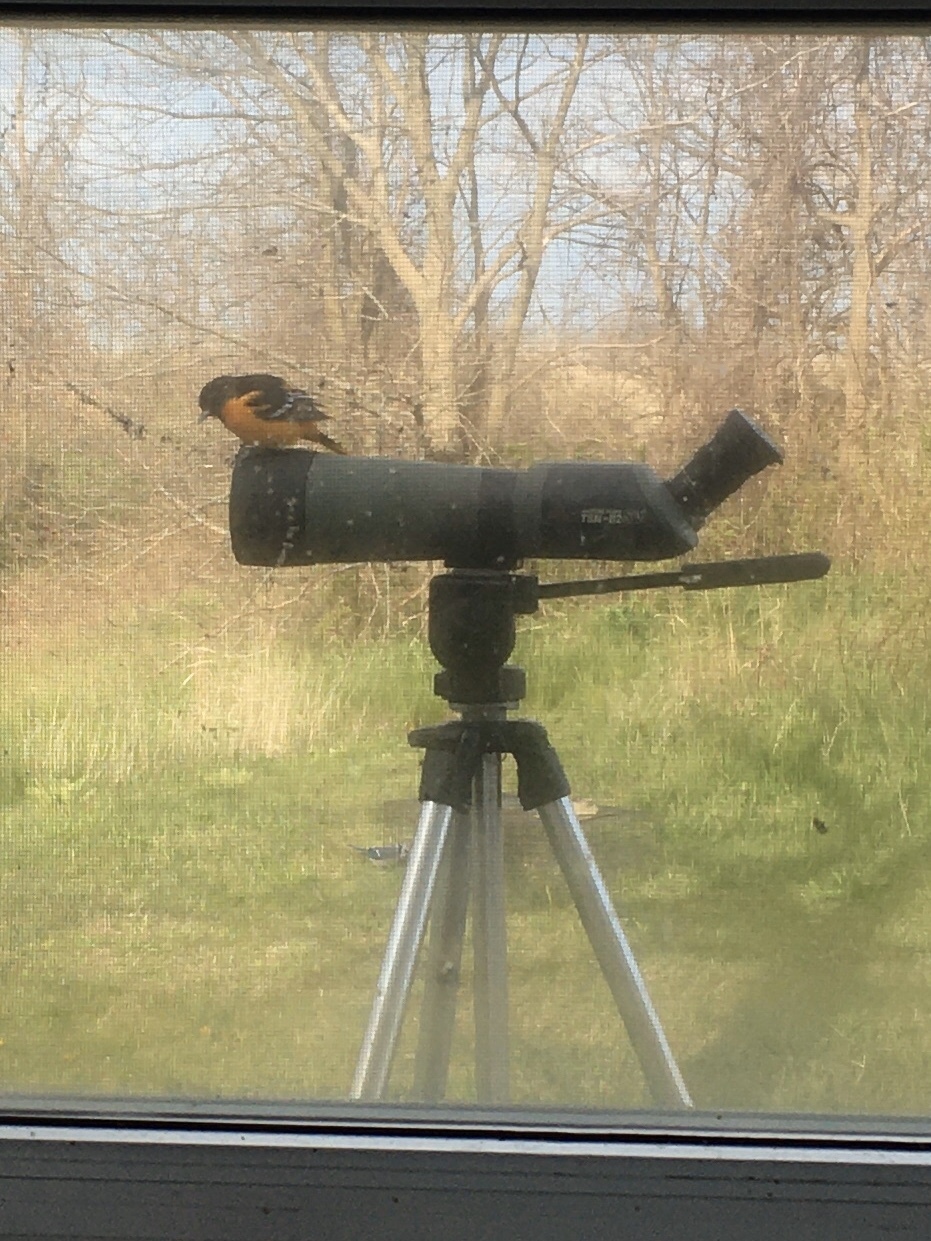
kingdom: Animalia
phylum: Chordata
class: Aves
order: Passeriformes
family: Icteridae
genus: Icterus
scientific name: Icterus galbula
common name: Baltimore oriole
